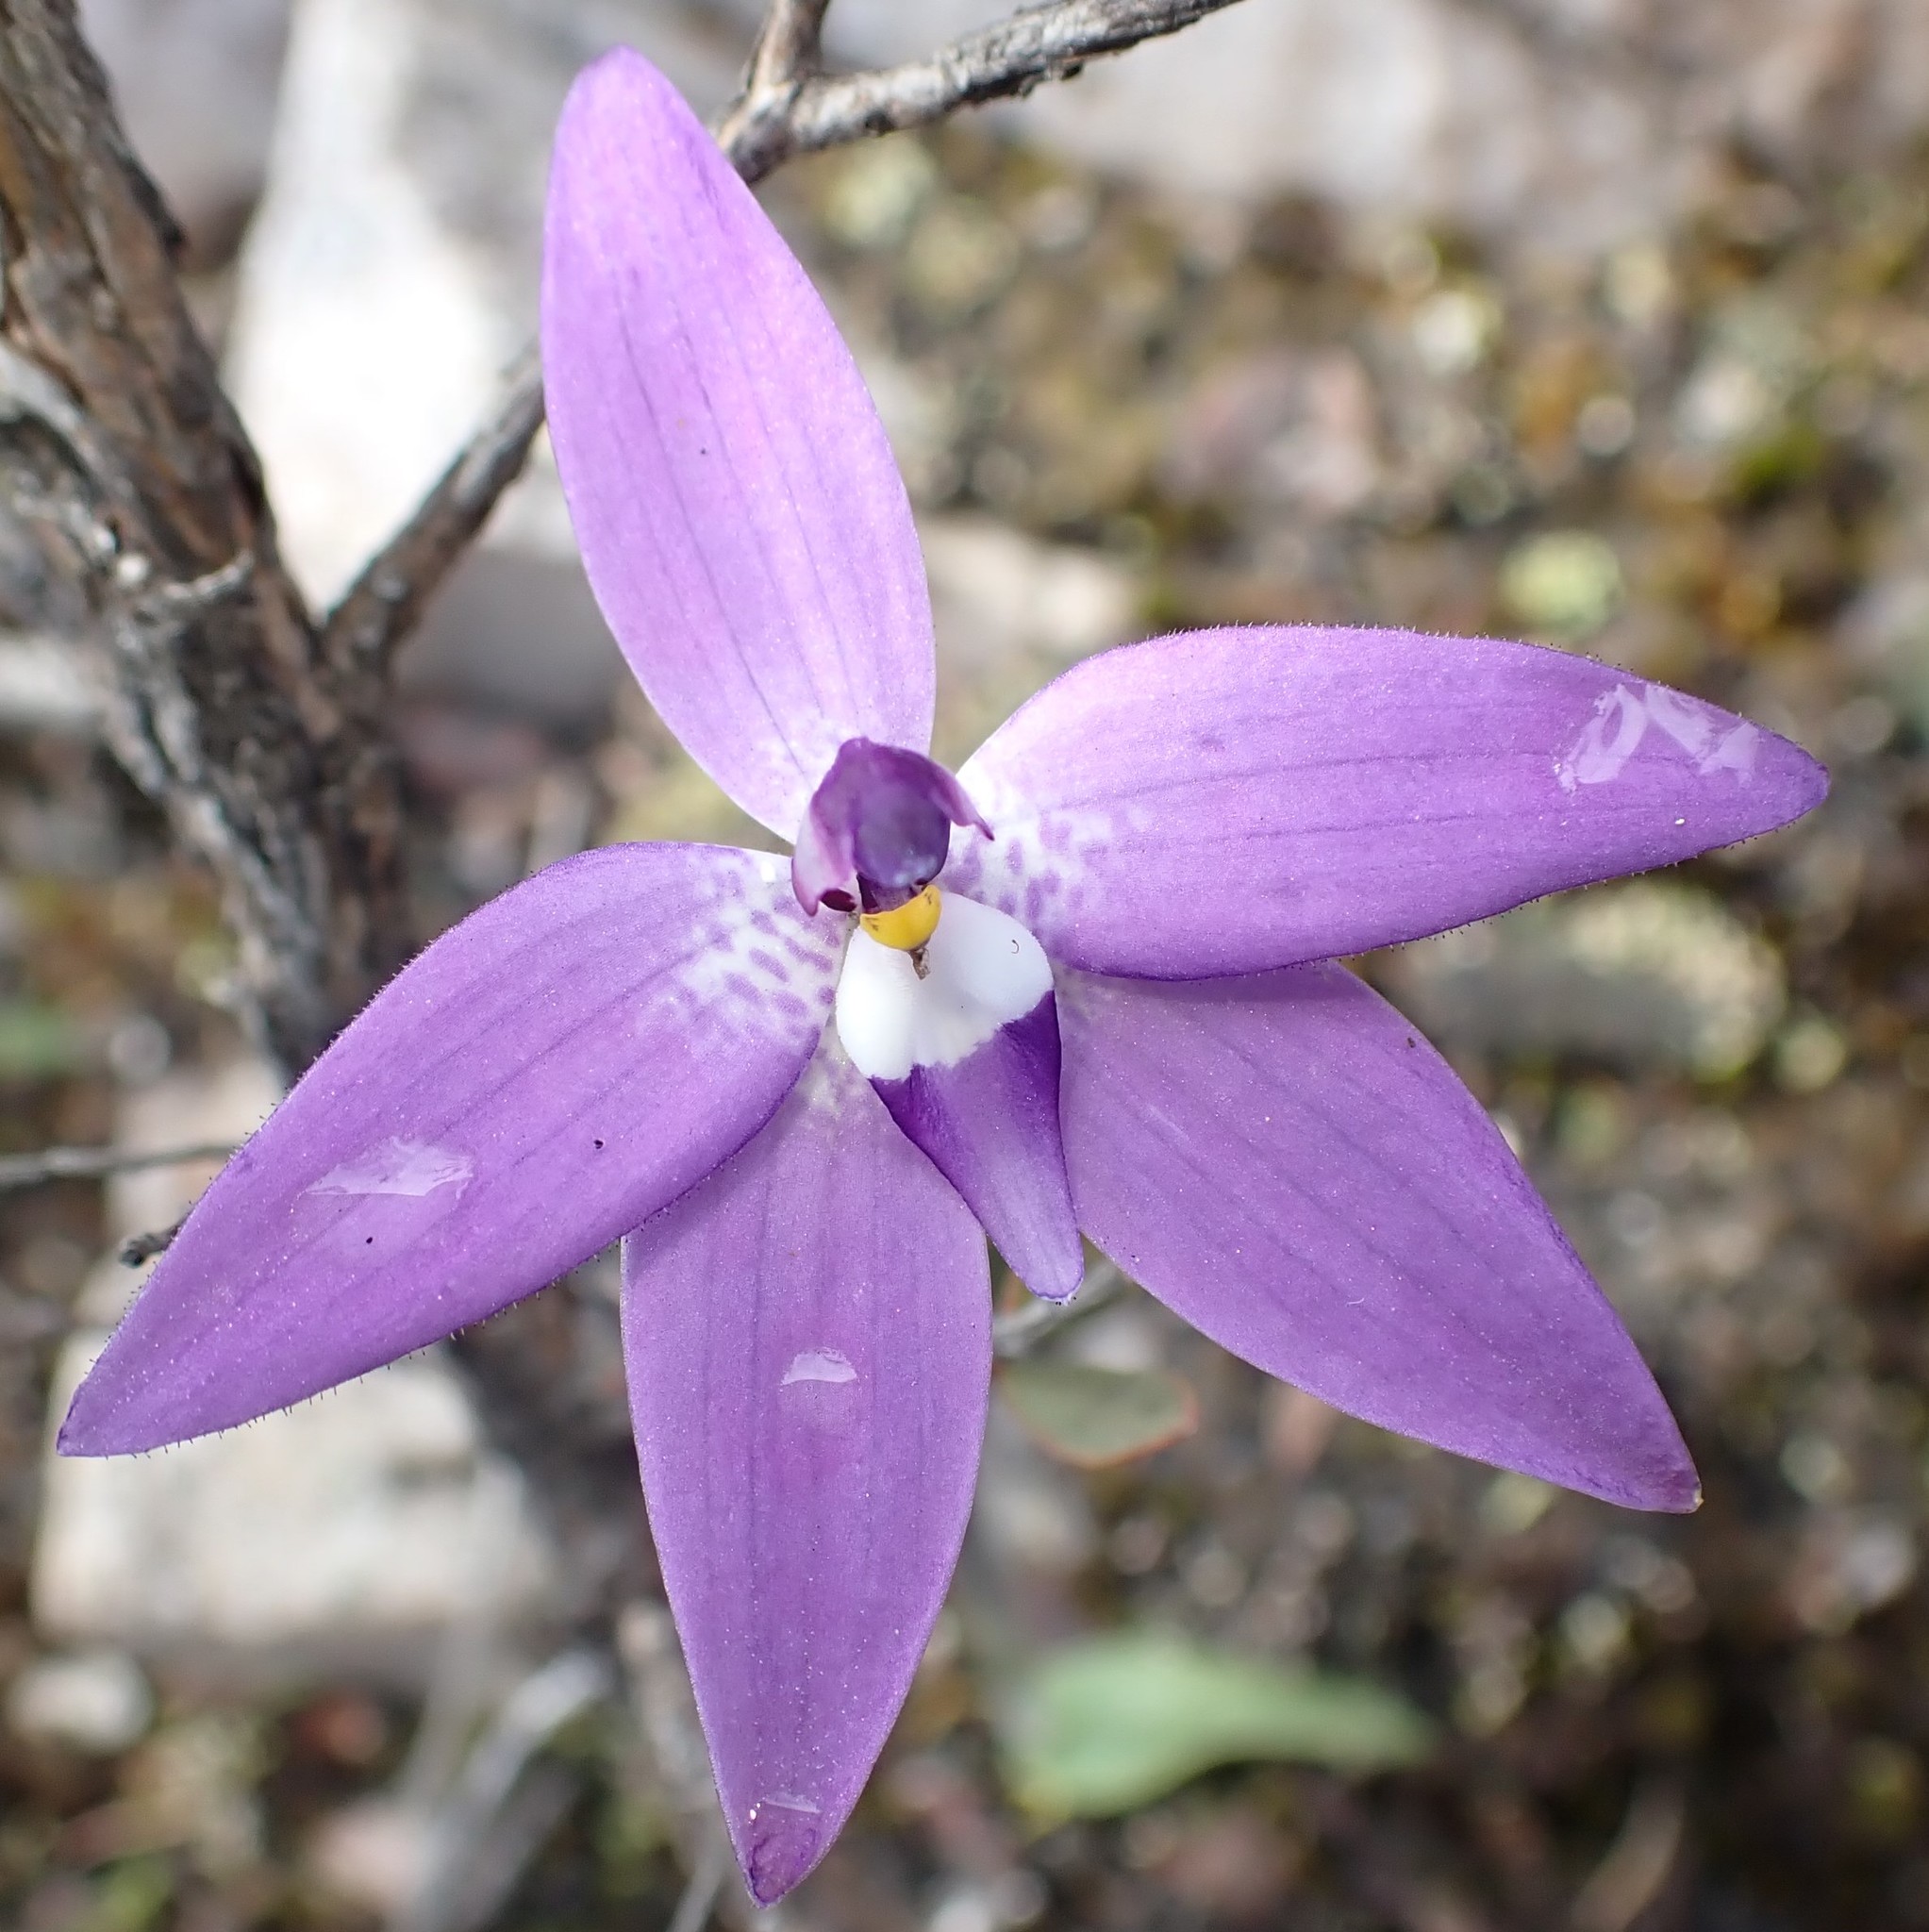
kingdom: Plantae
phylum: Tracheophyta
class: Liliopsida
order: Asparagales
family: Orchidaceae
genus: Caladenia
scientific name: Caladenia major
